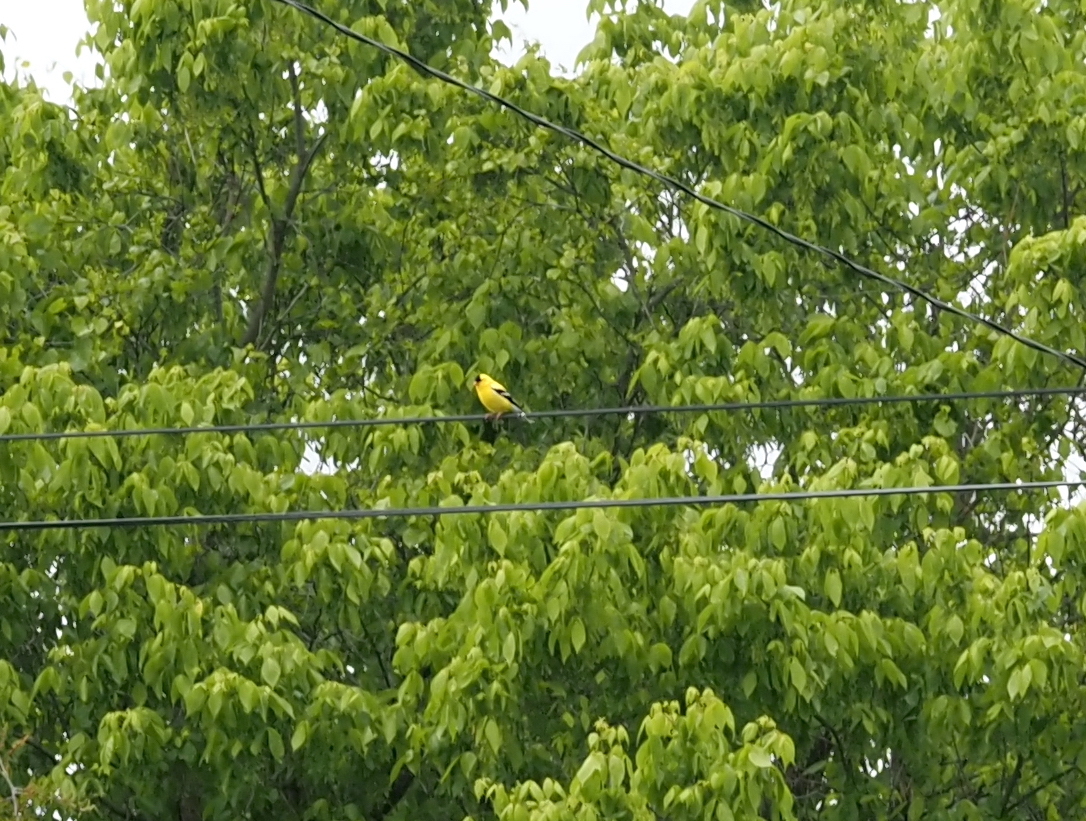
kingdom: Animalia
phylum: Chordata
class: Aves
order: Passeriformes
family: Fringillidae
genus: Spinus
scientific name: Spinus tristis
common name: American goldfinch
